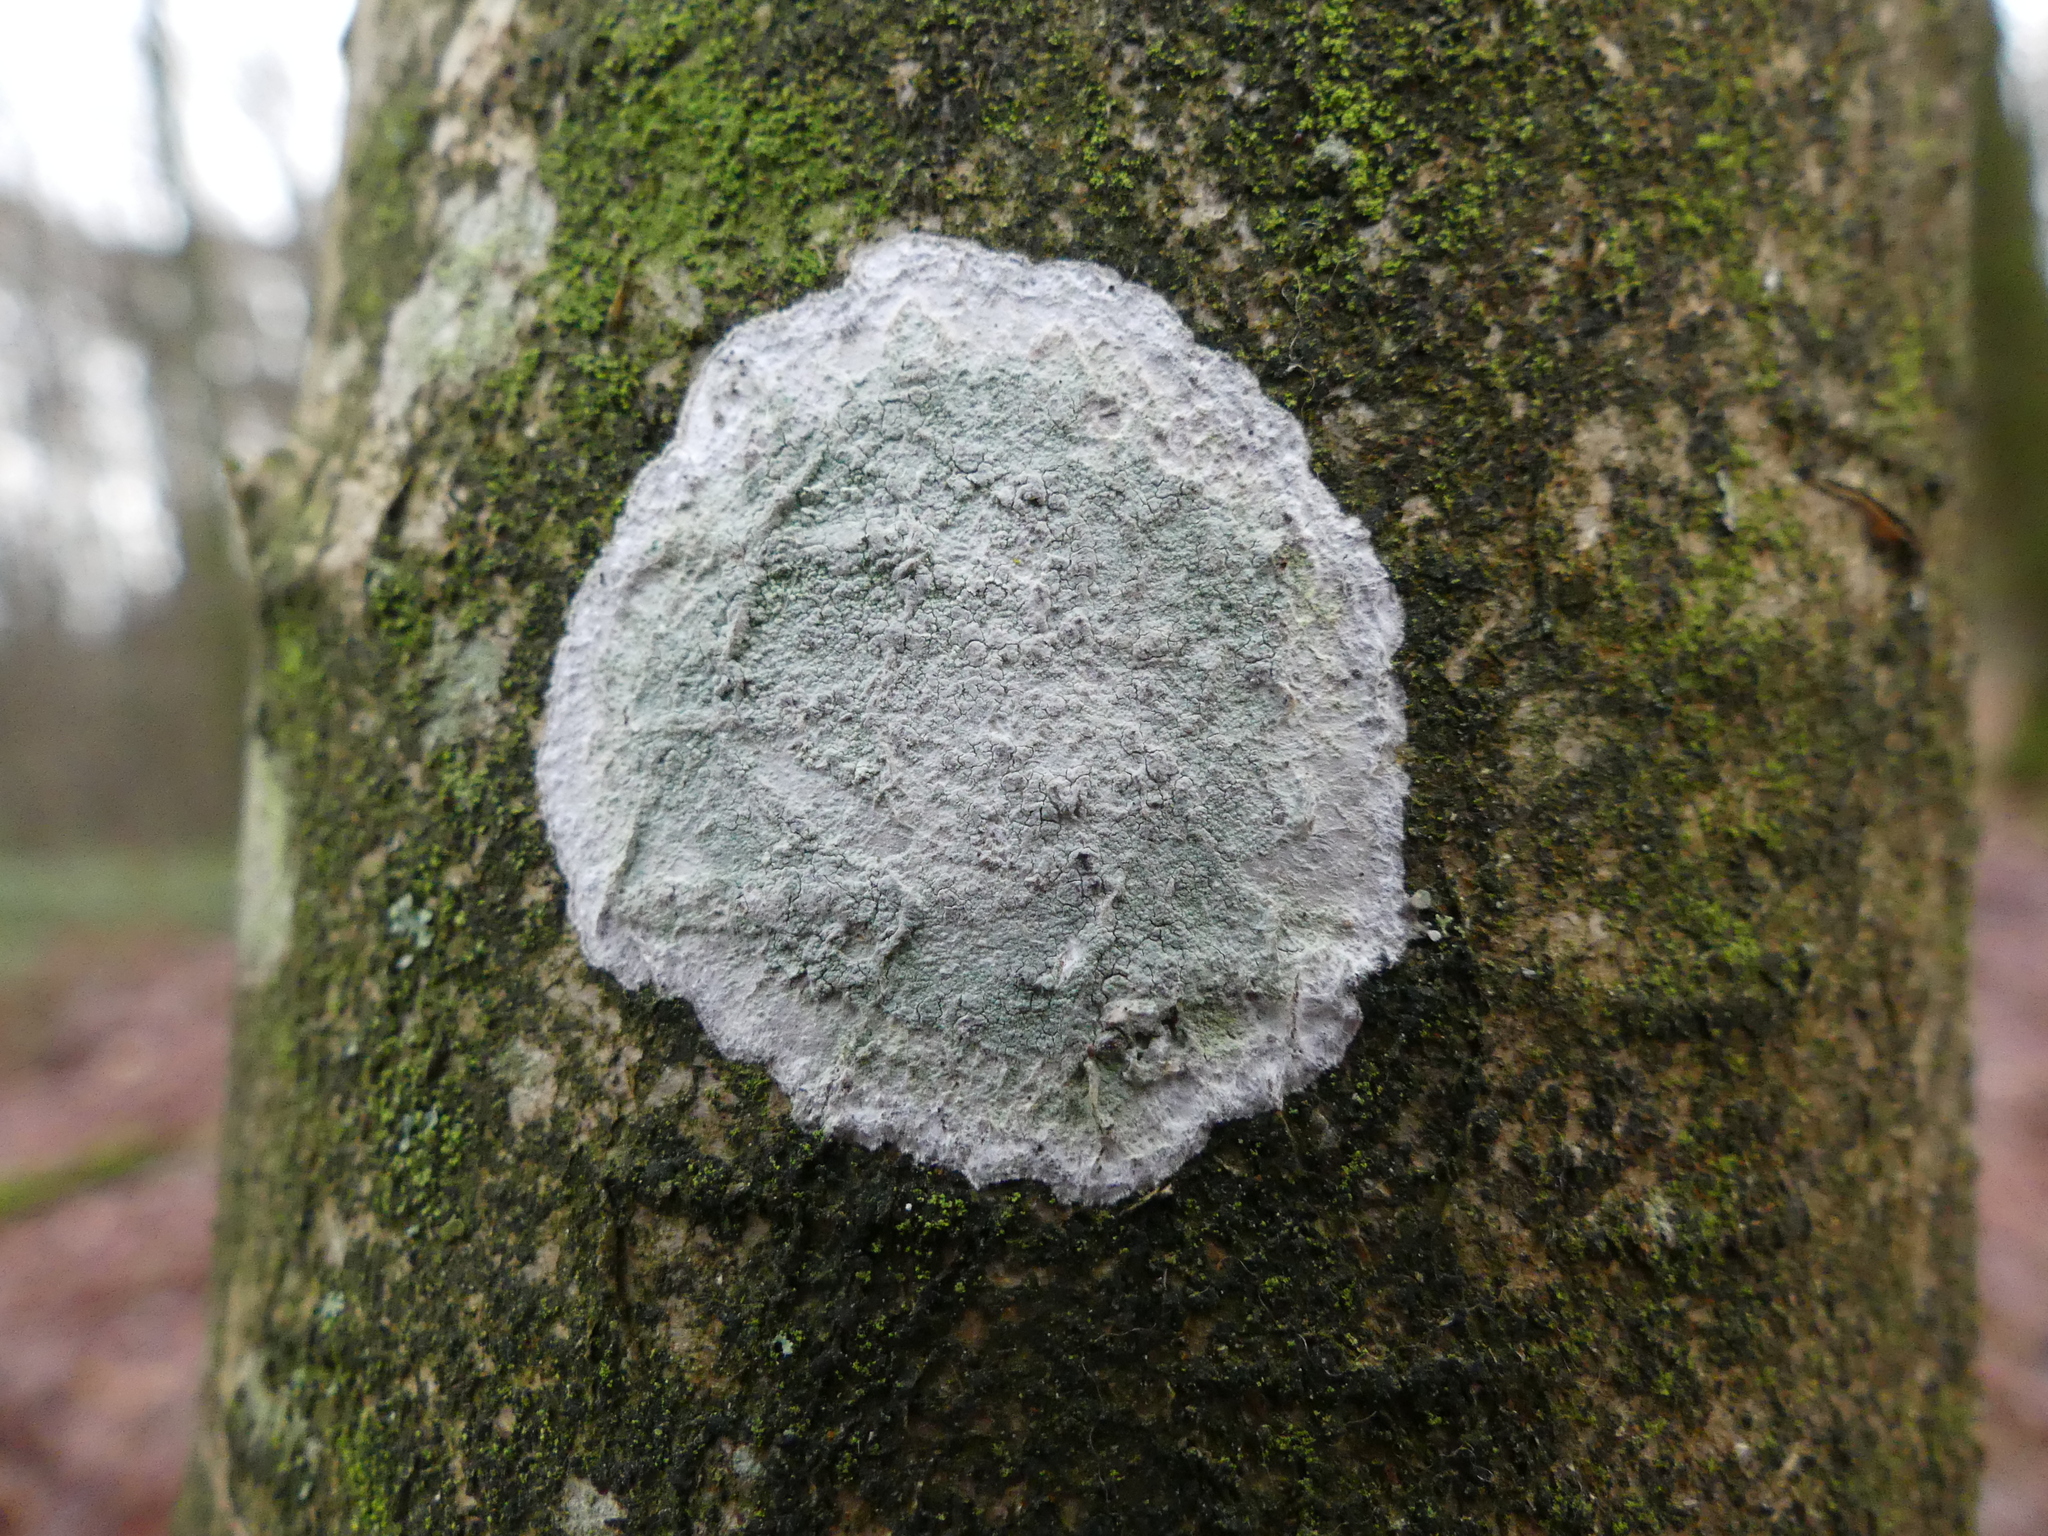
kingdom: Fungi
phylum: Ascomycota
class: Lecanoromycetes
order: Ostropales
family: Phlyctidaceae
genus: Phlyctis
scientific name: Phlyctis argena
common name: Whitewash lichen
